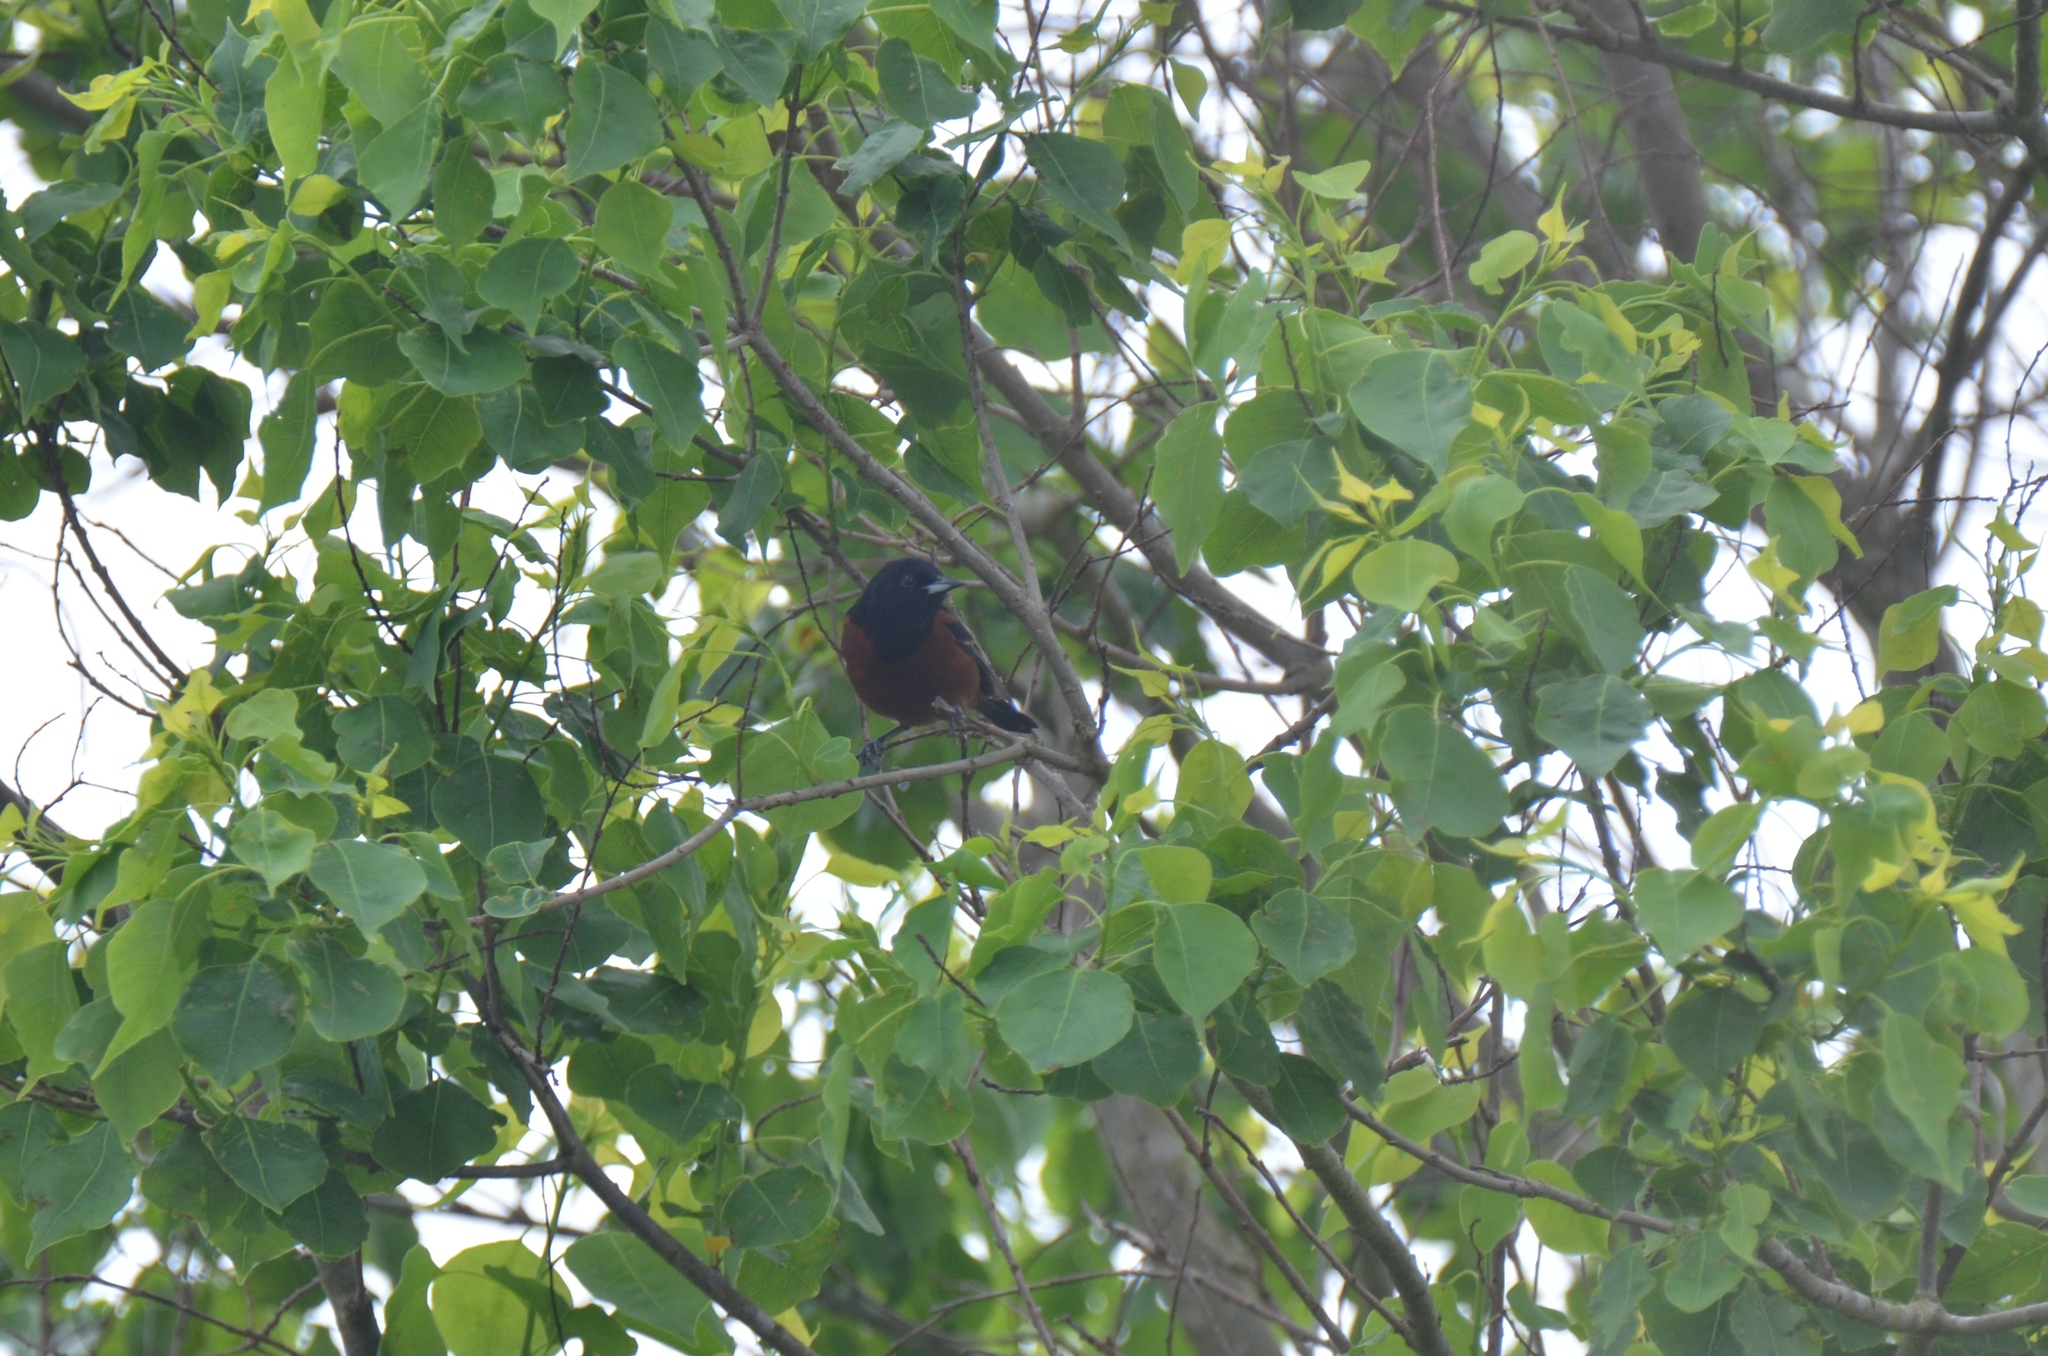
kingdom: Animalia
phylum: Chordata
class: Aves
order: Passeriformes
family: Icteridae
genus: Icterus
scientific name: Icterus spurius
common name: Orchard oriole
